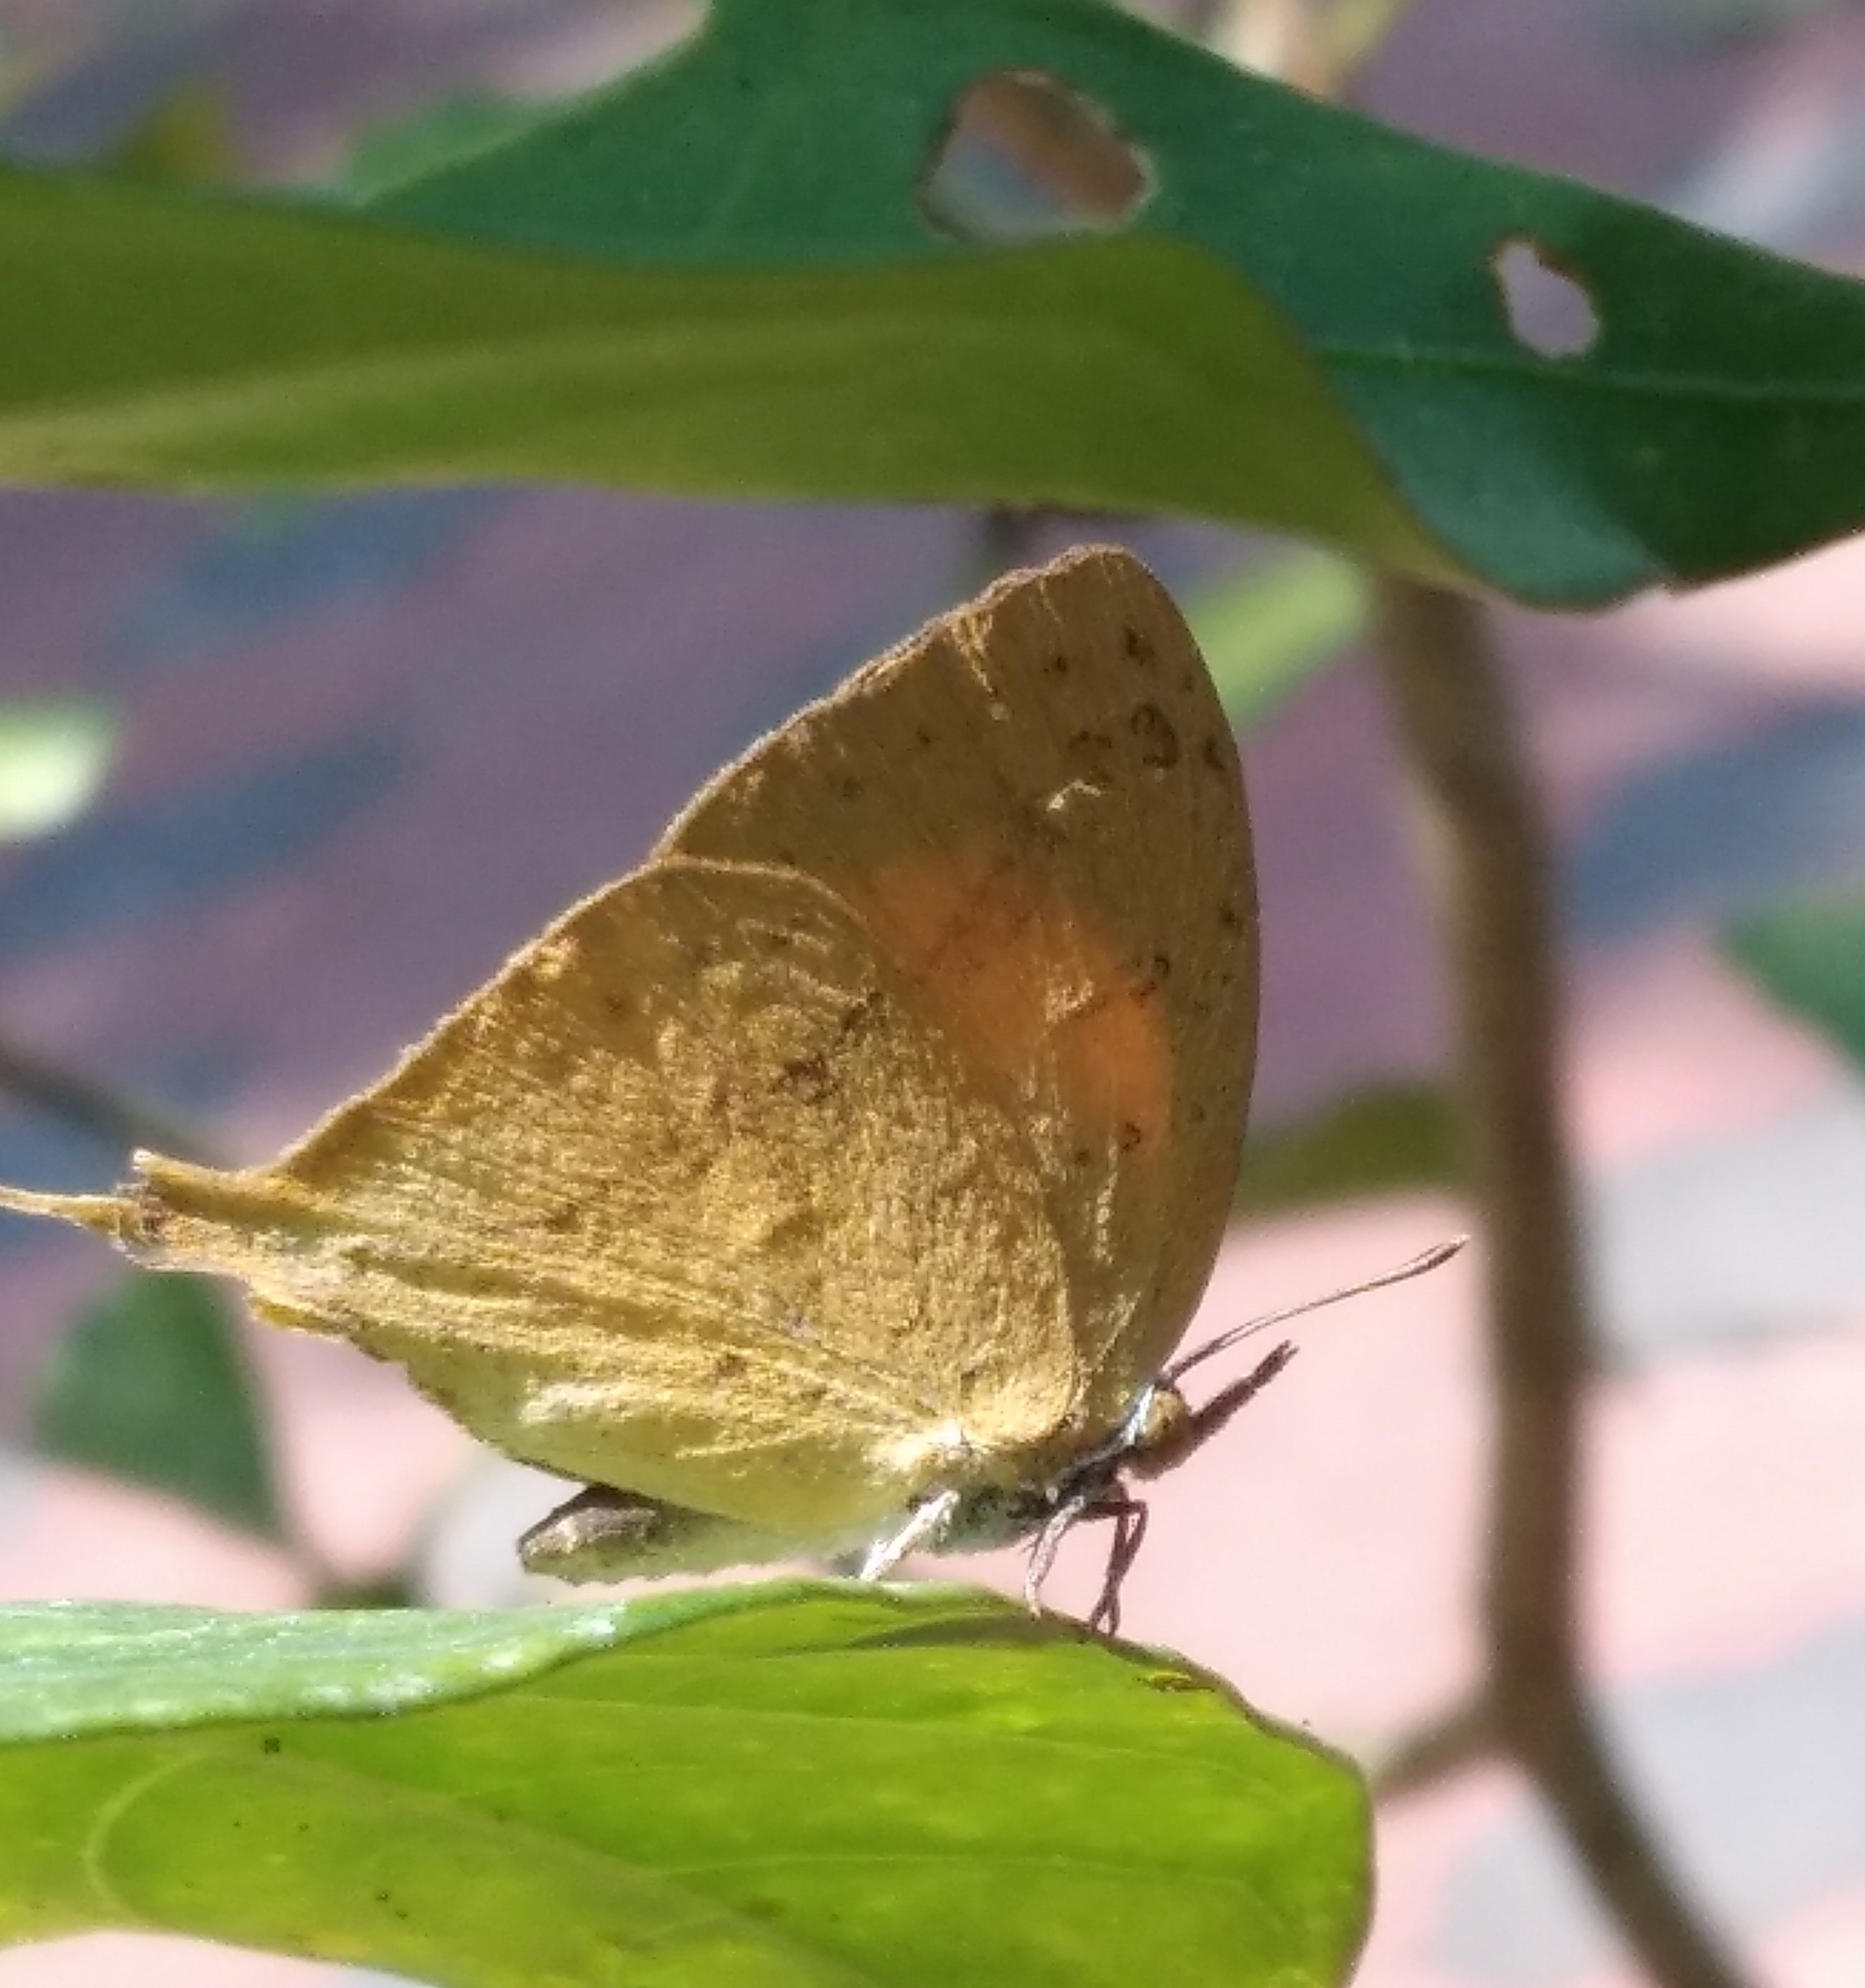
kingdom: Animalia
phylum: Arthropoda
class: Insecta
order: Lepidoptera
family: Lycaenidae
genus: Loxura
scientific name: Loxura atymnus
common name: Common yamfly
